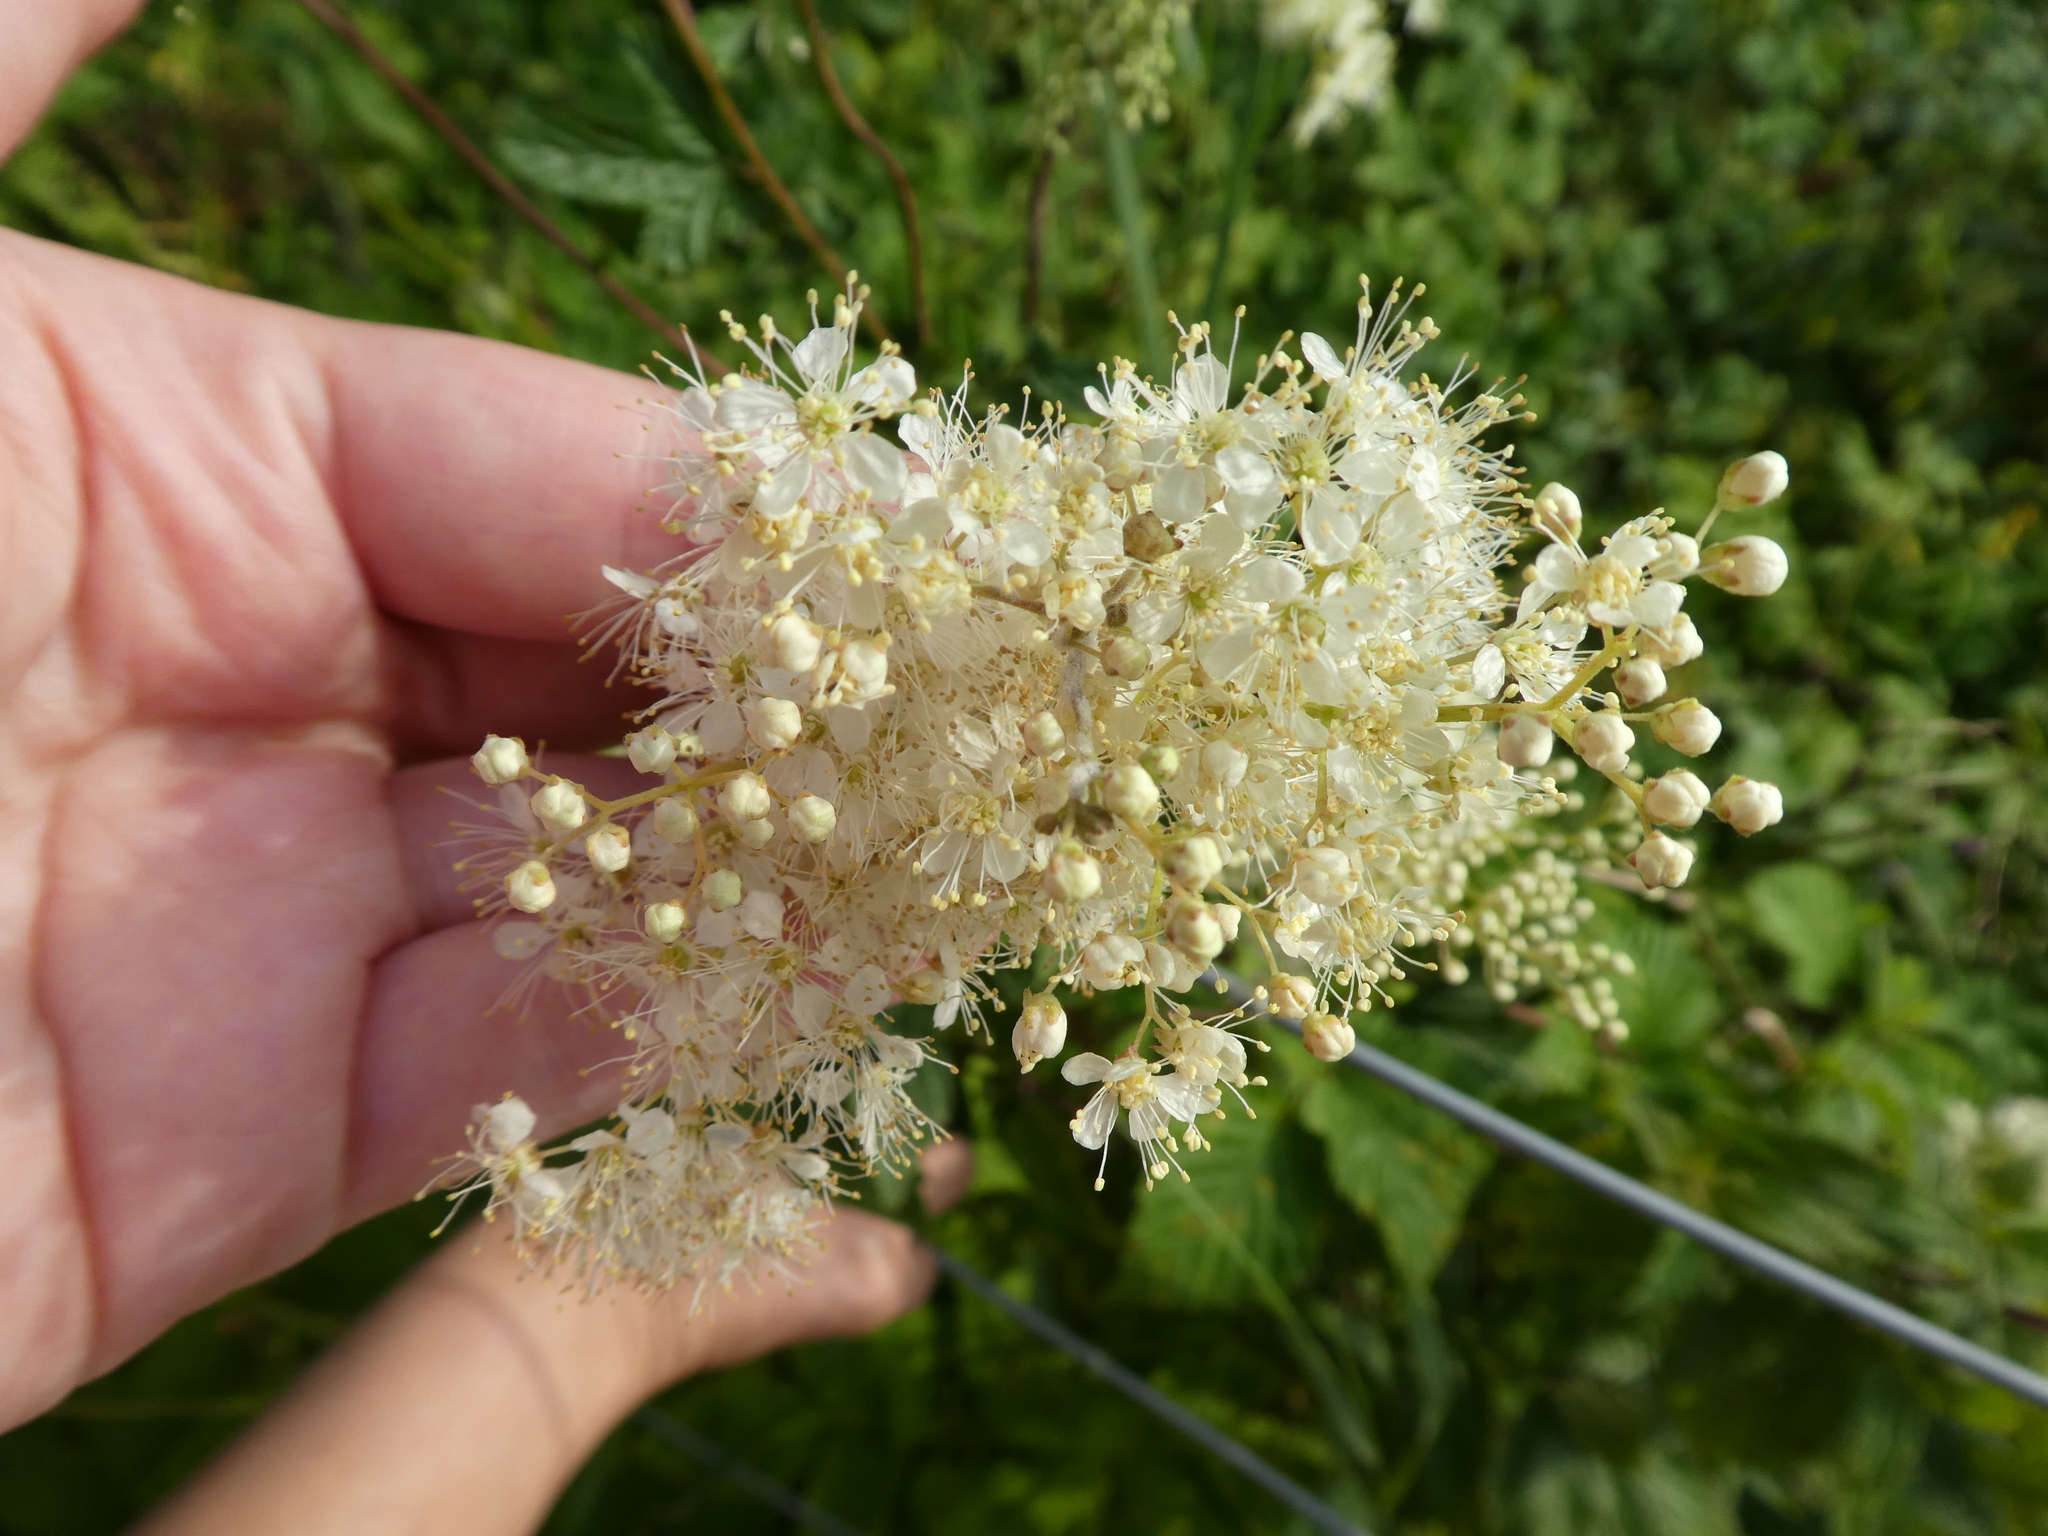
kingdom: Plantae
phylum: Tracheophyta
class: Magnoliopsida
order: Rosales
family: Rosaceae
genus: Filipendula
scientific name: Filipendula ulmaria
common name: Meadowsweet
